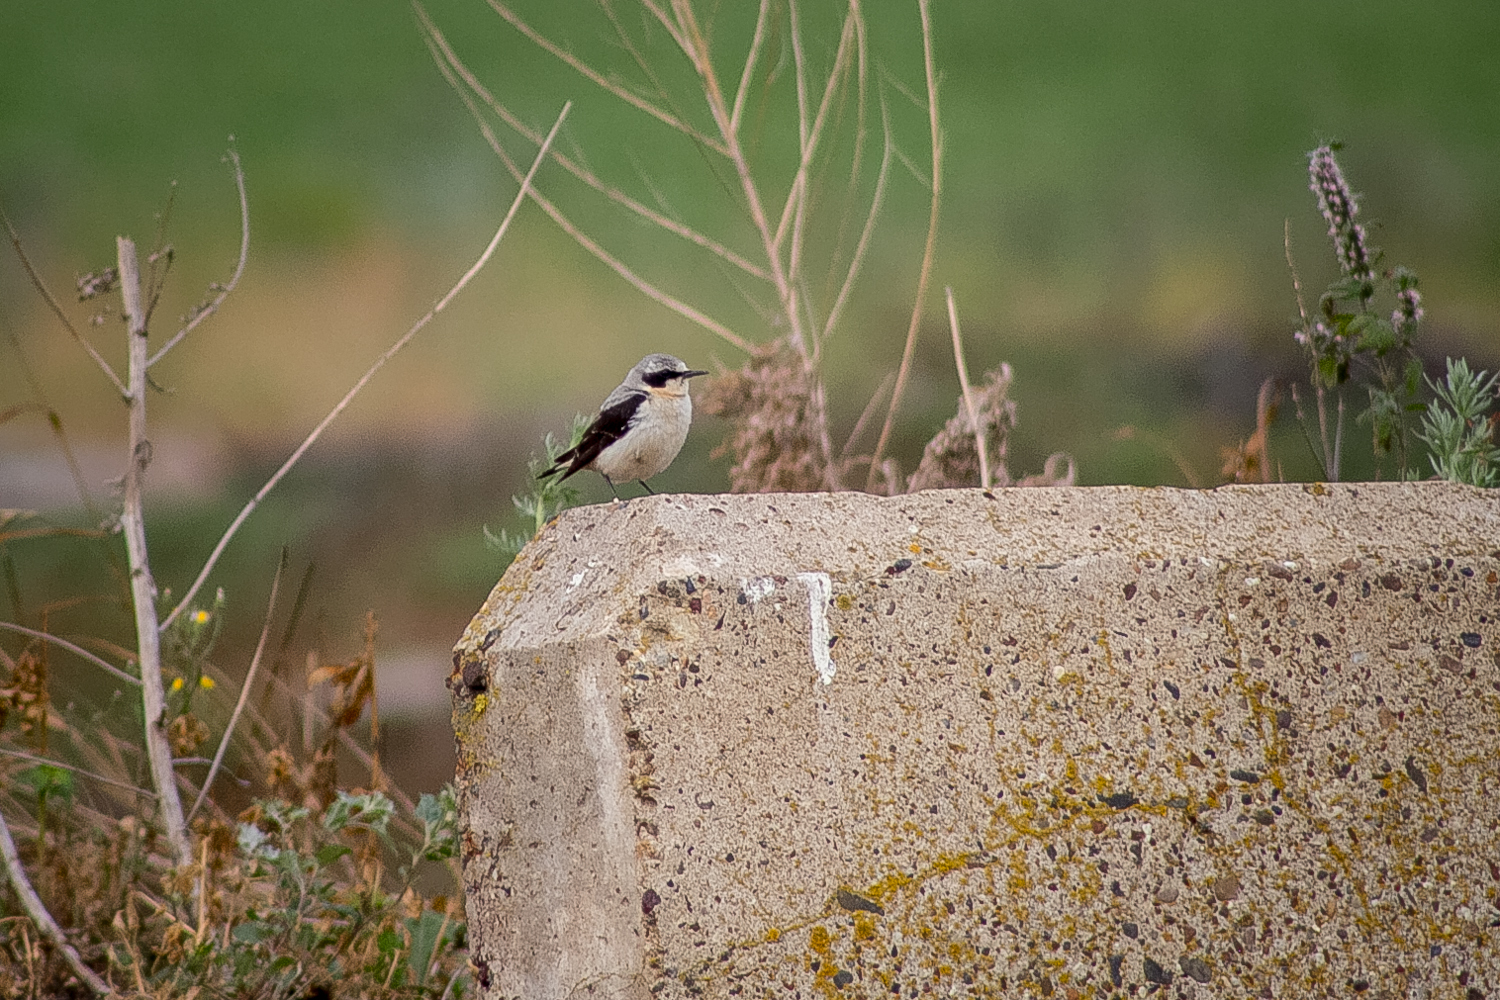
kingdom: Animalia
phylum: Chordata
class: Aves
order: Passeriformes
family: Muscicapidae
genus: Oenanthe
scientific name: Oenanthe oenanthe
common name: Northern wheatear
